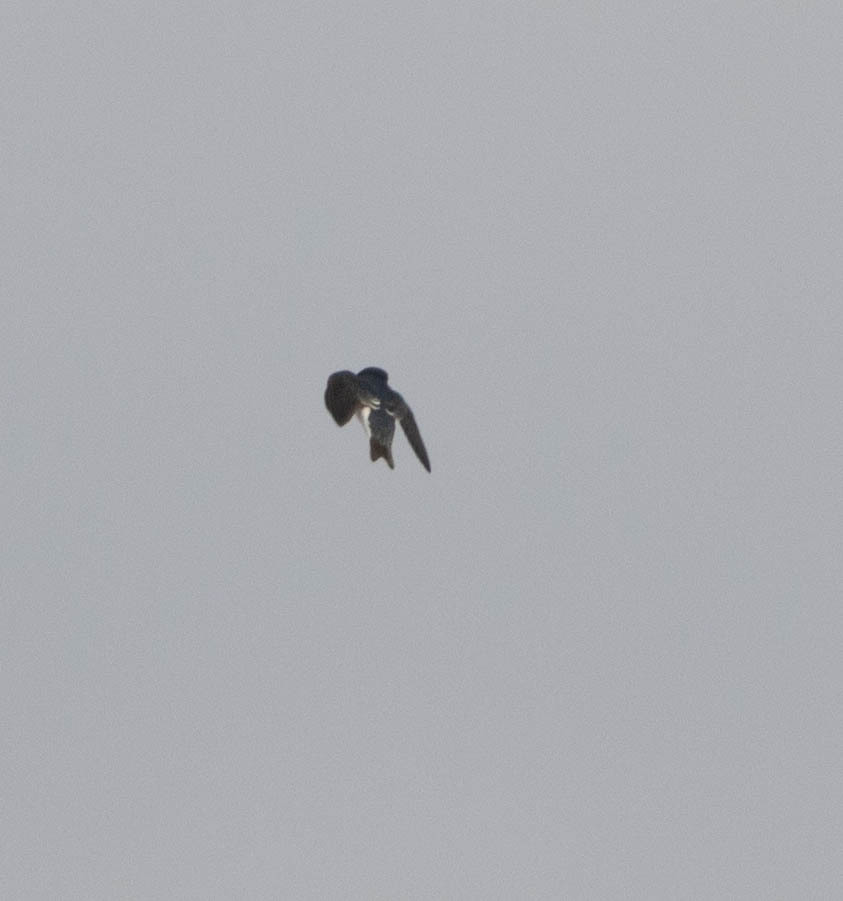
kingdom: Animalia
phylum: Chordata
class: Aves
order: Passeriformes
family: Hirundinidae
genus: Tachycineta
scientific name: Tachycineta bicolor
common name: Tree swallow
